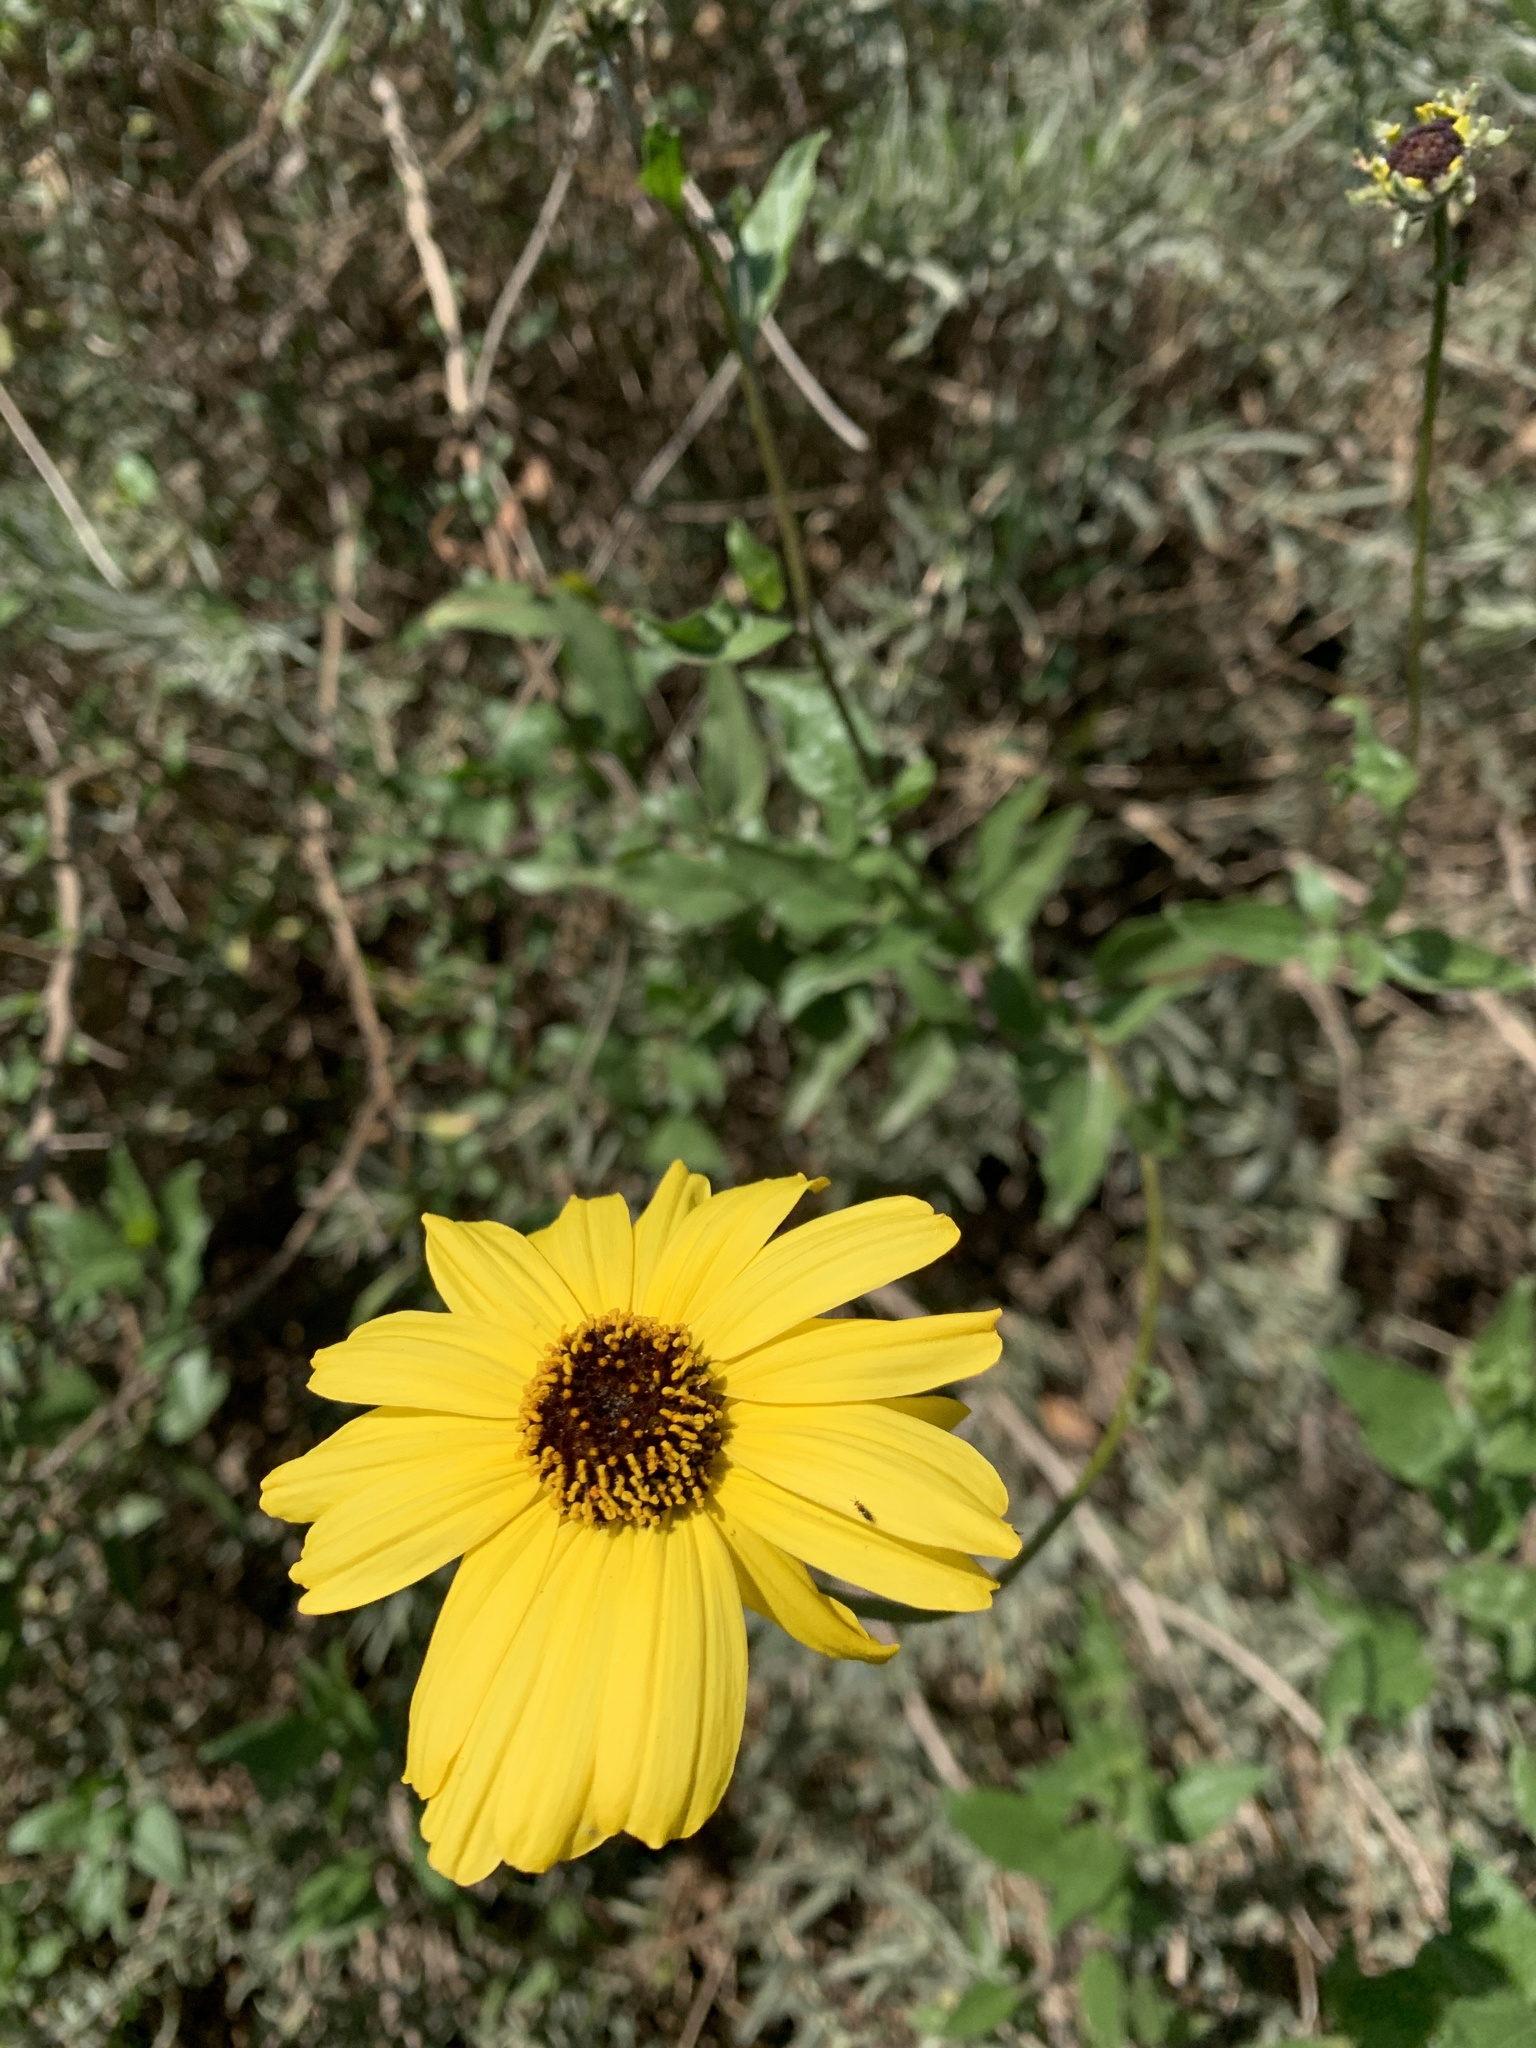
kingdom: Plantae
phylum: Tracheophyta
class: Magnoliopsida
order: Asterales
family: Asteraceae
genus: Encelia
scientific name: Encelia californica
